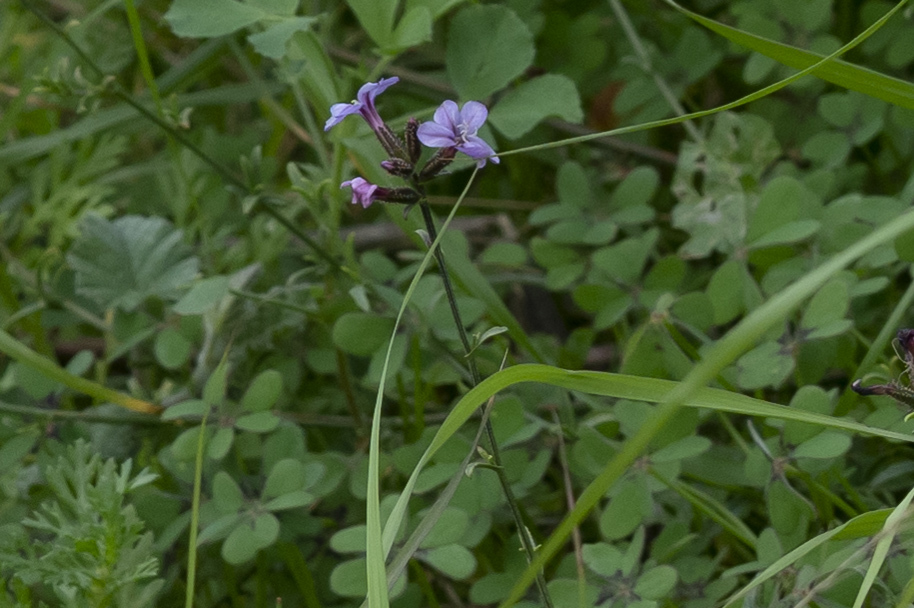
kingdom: Plantae
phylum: Tracheophyta
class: Magnoliopsida
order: Caryophyllales
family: Plumbaginaceae
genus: Plumbago
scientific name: Plumbago europaea
